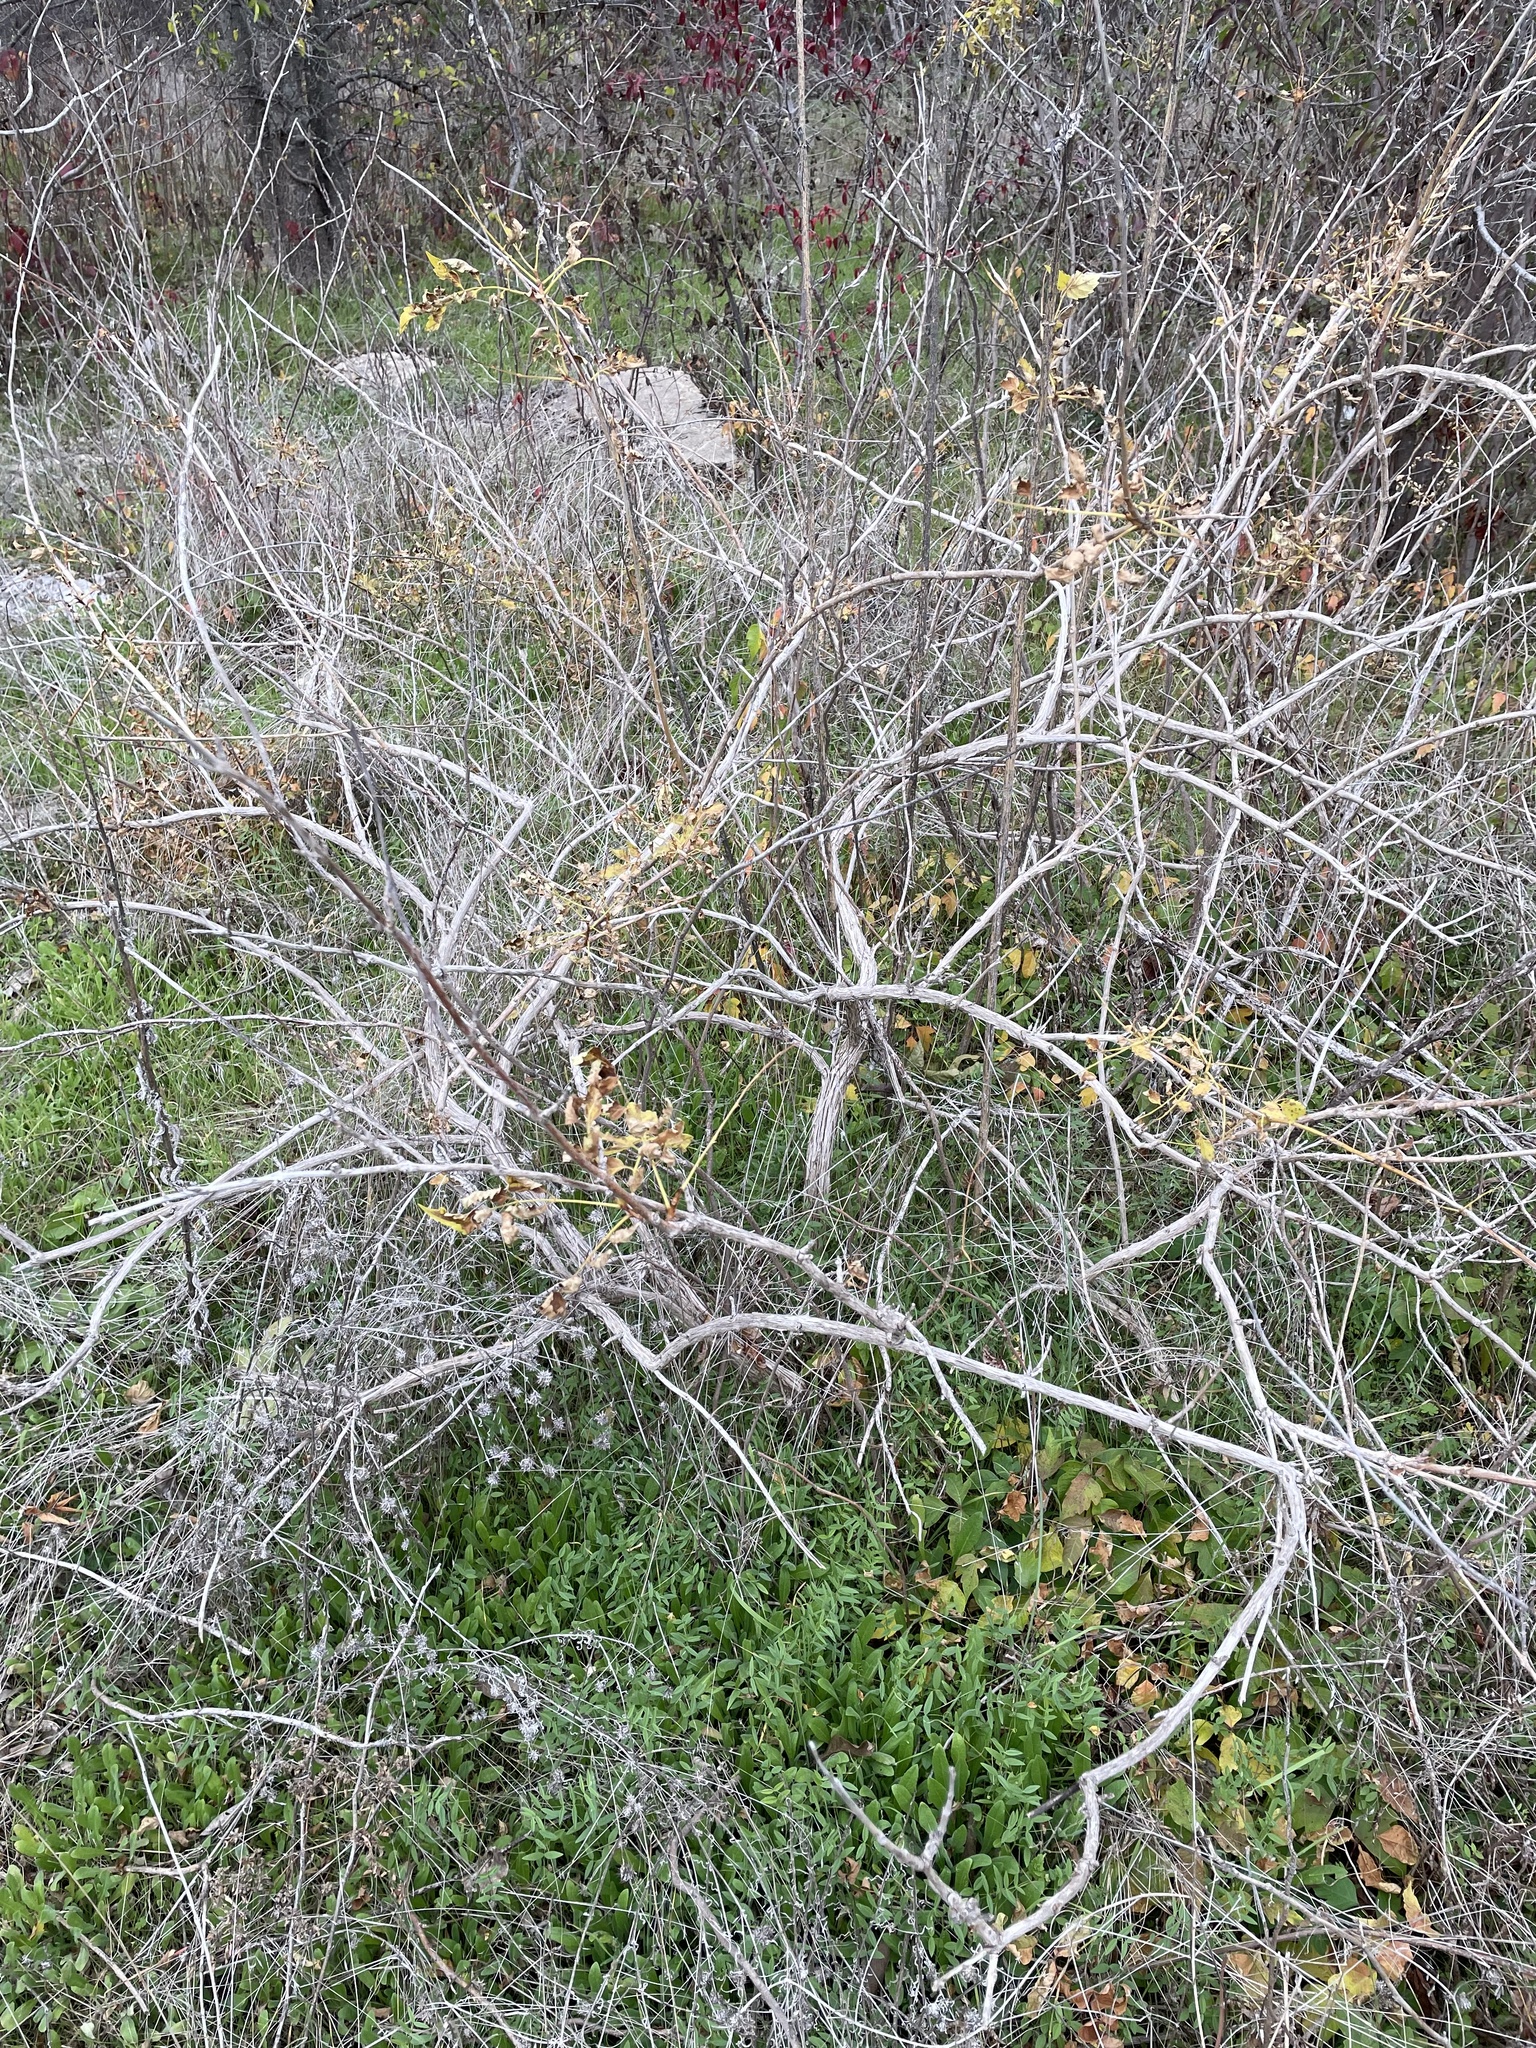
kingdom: Plantae
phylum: Tracheophyta
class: Magnoliopsida
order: Lamiales
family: Bignoniaceae
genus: Campsis
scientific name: Campsis radicans
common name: Trumpet-creeper
